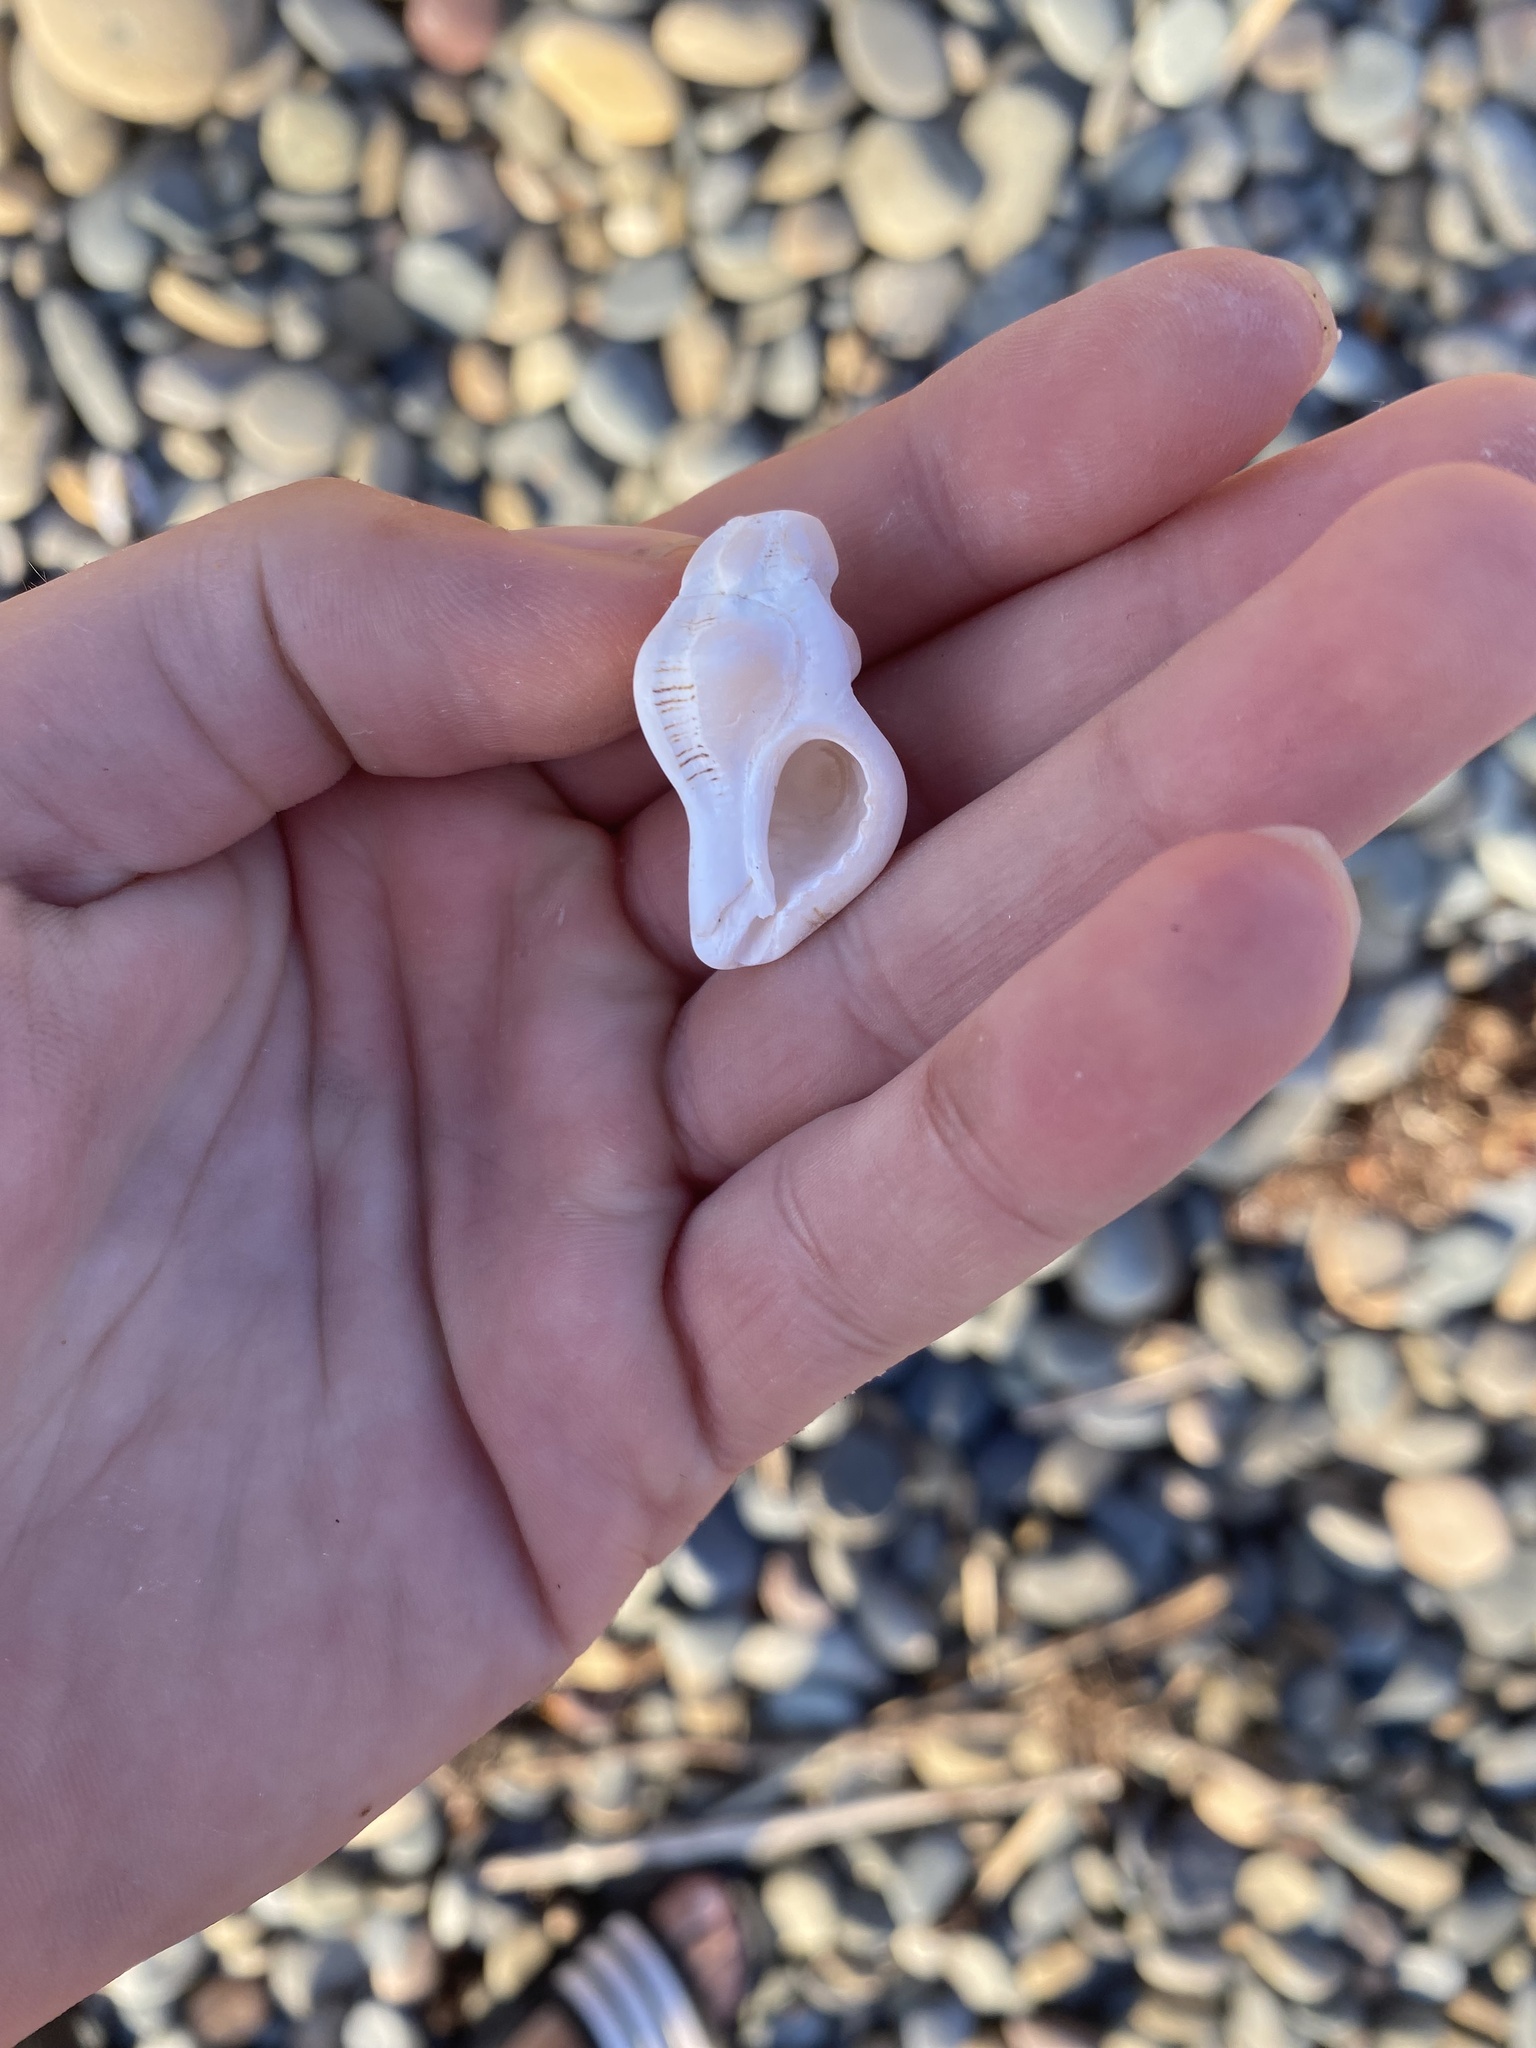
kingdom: Animalia
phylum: Mollusca
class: Gastropoda
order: Neogastropoda
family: Muricidae
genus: Pteropurpura
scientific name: Pteropurpura festiva
